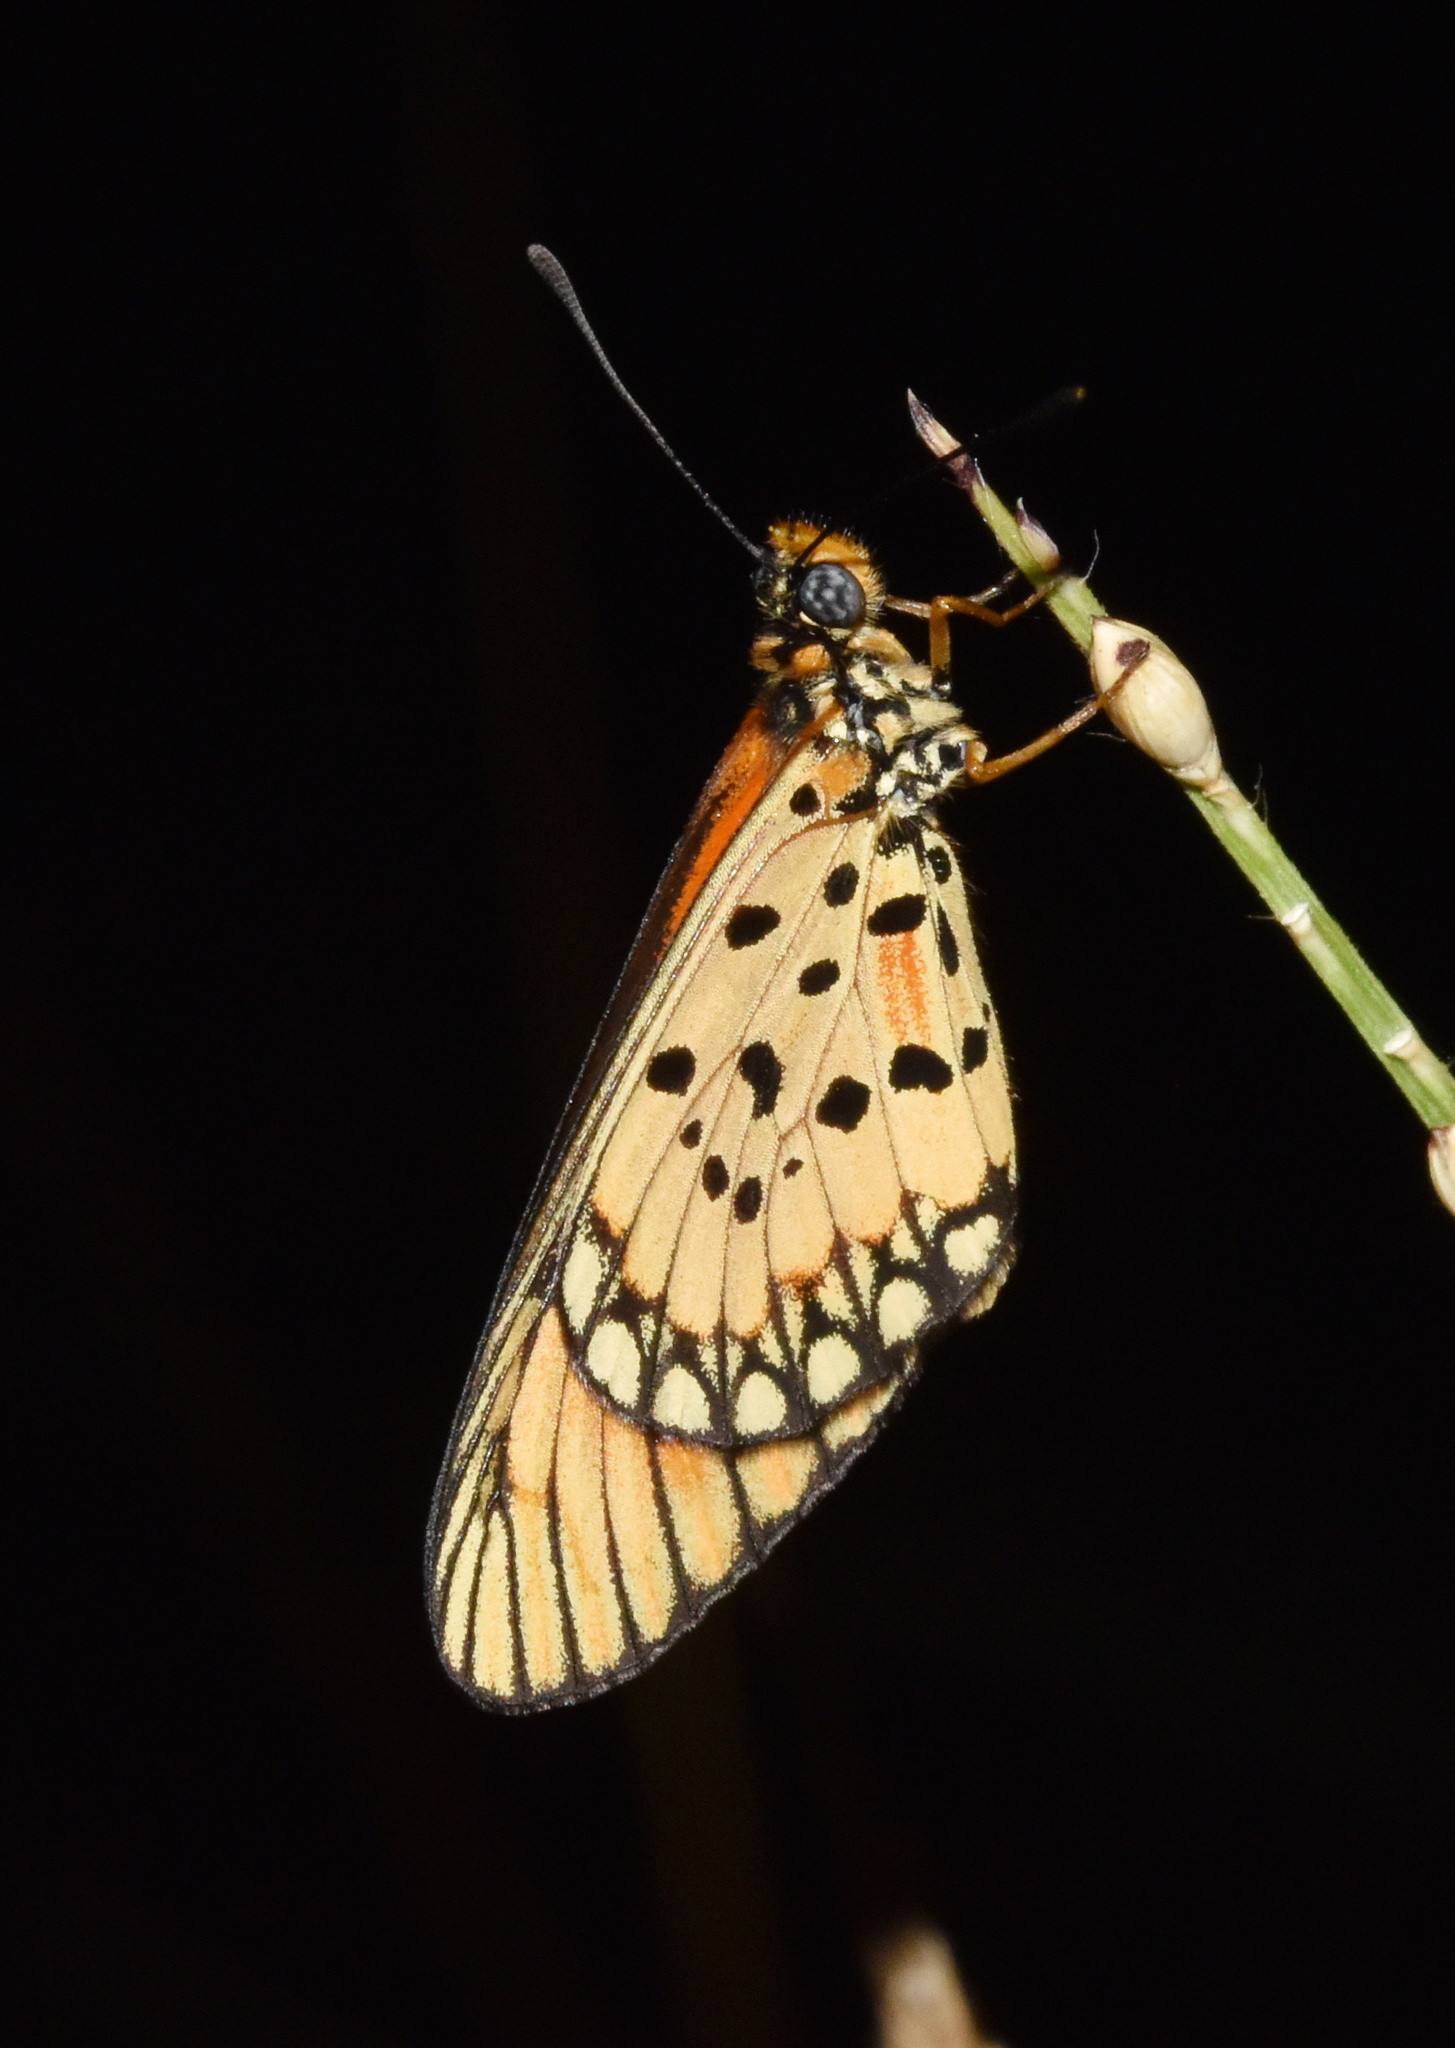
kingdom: Animalia
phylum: Arthropoda
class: Insecta
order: Lepidoptera
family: Nymphalidae
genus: Acraea
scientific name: Acraea Telchinia serena
